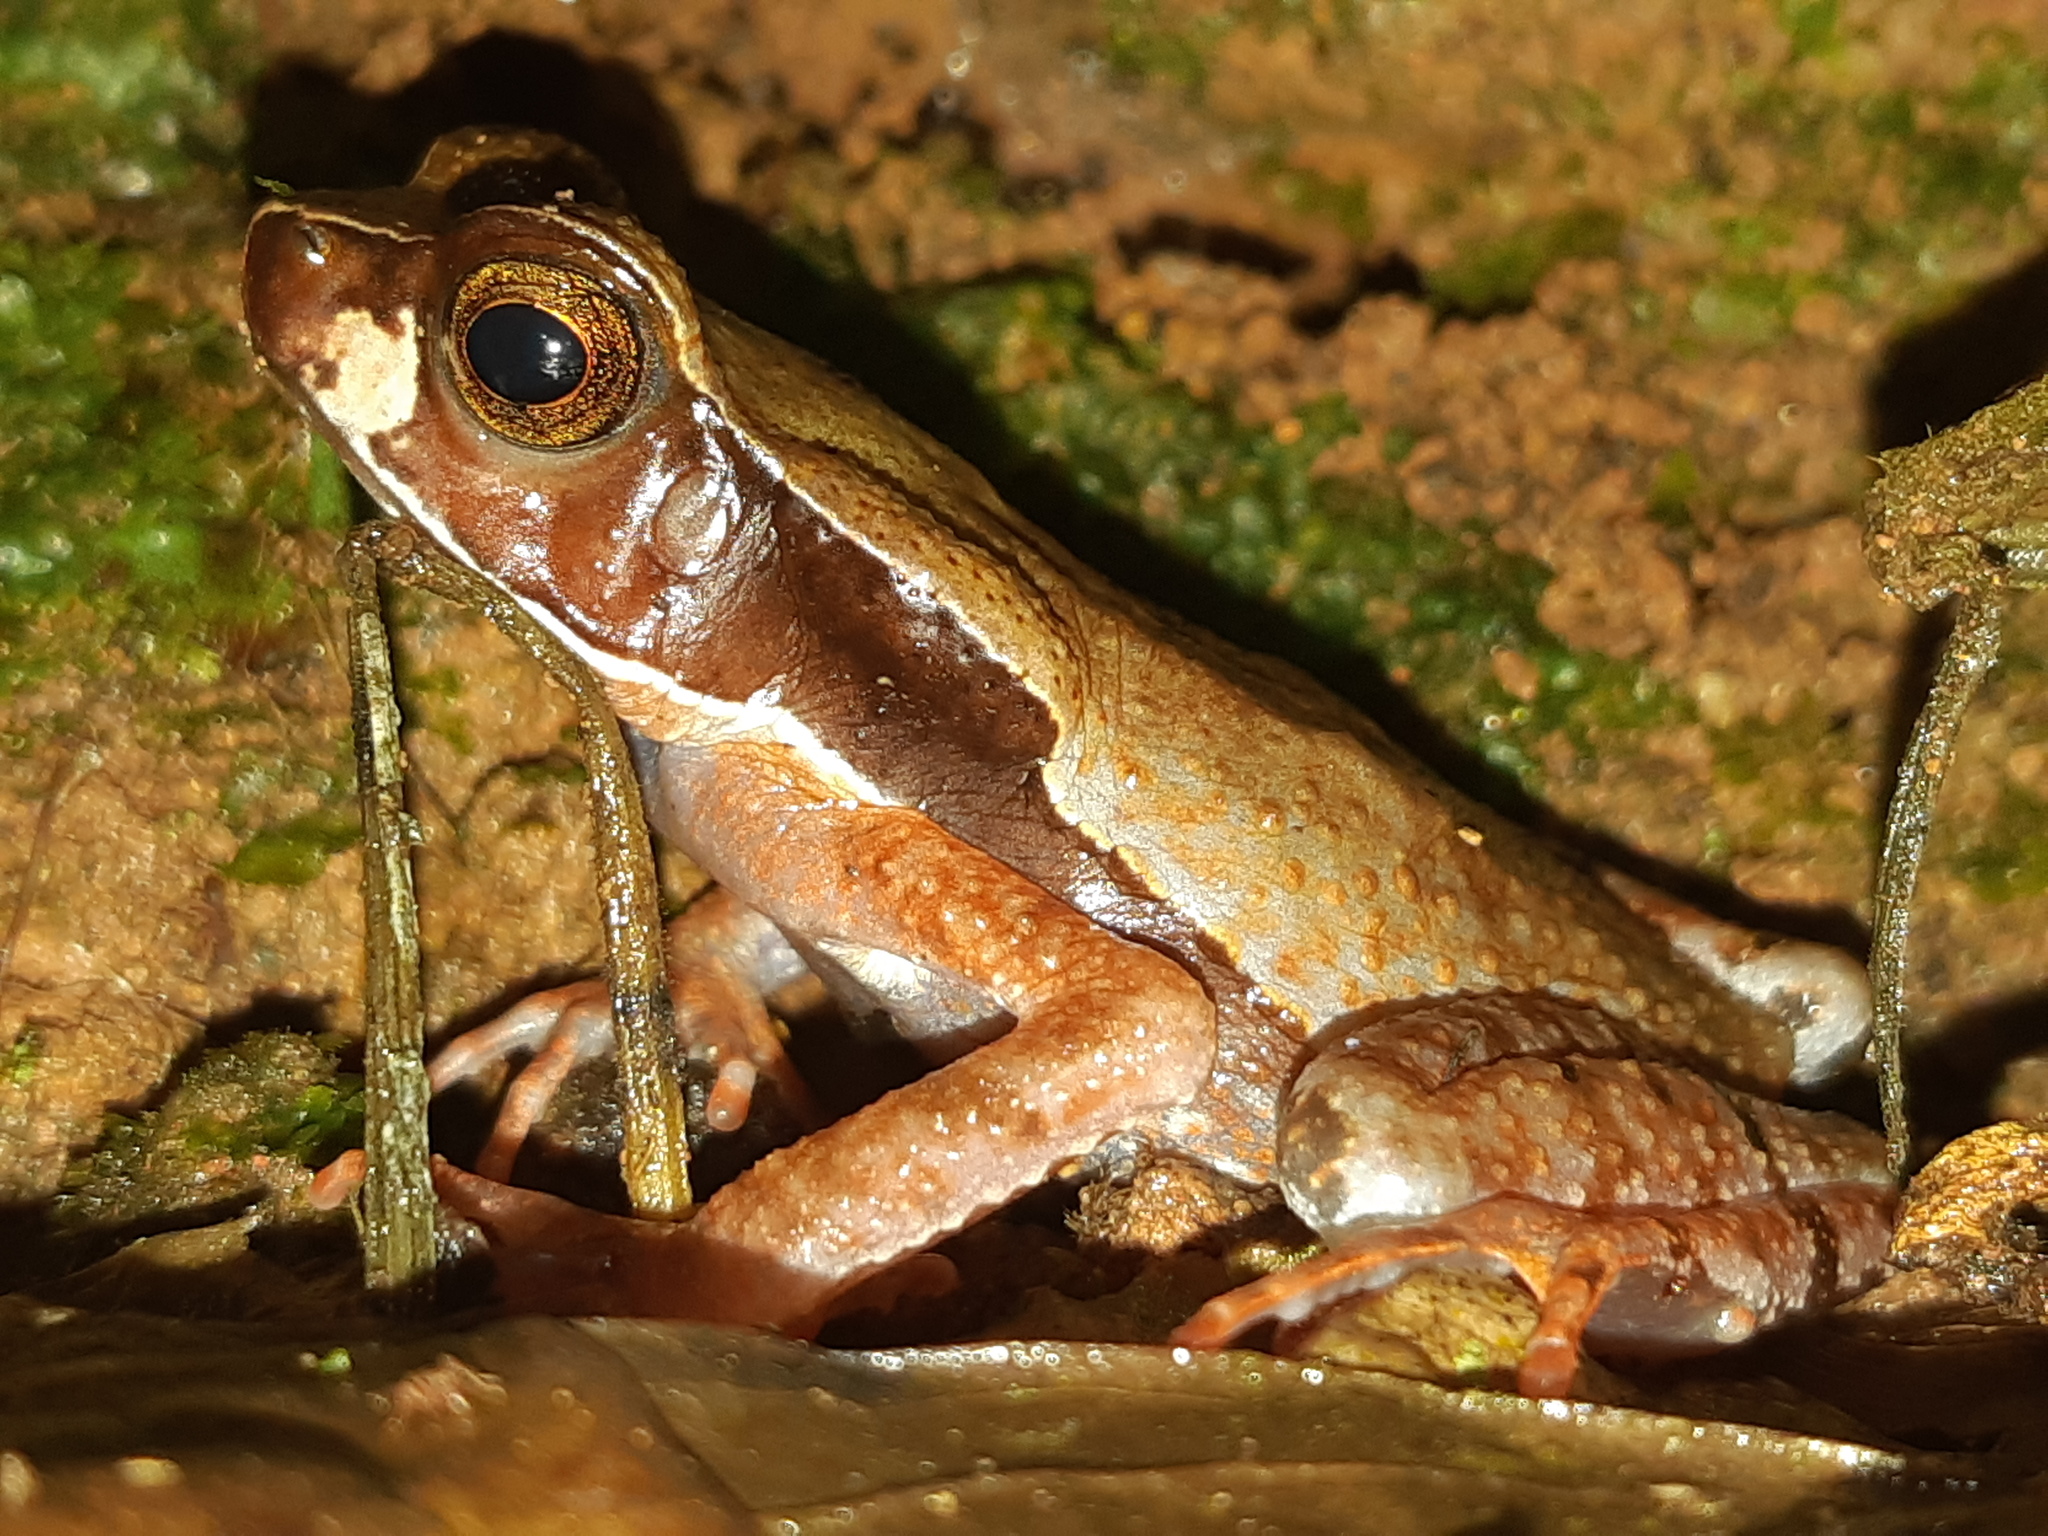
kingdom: Animalia
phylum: Chordata
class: Amphibia
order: Anura
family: Bufonidae
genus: Rhaebo
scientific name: Rhaebo haematiticus
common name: Truando toad
